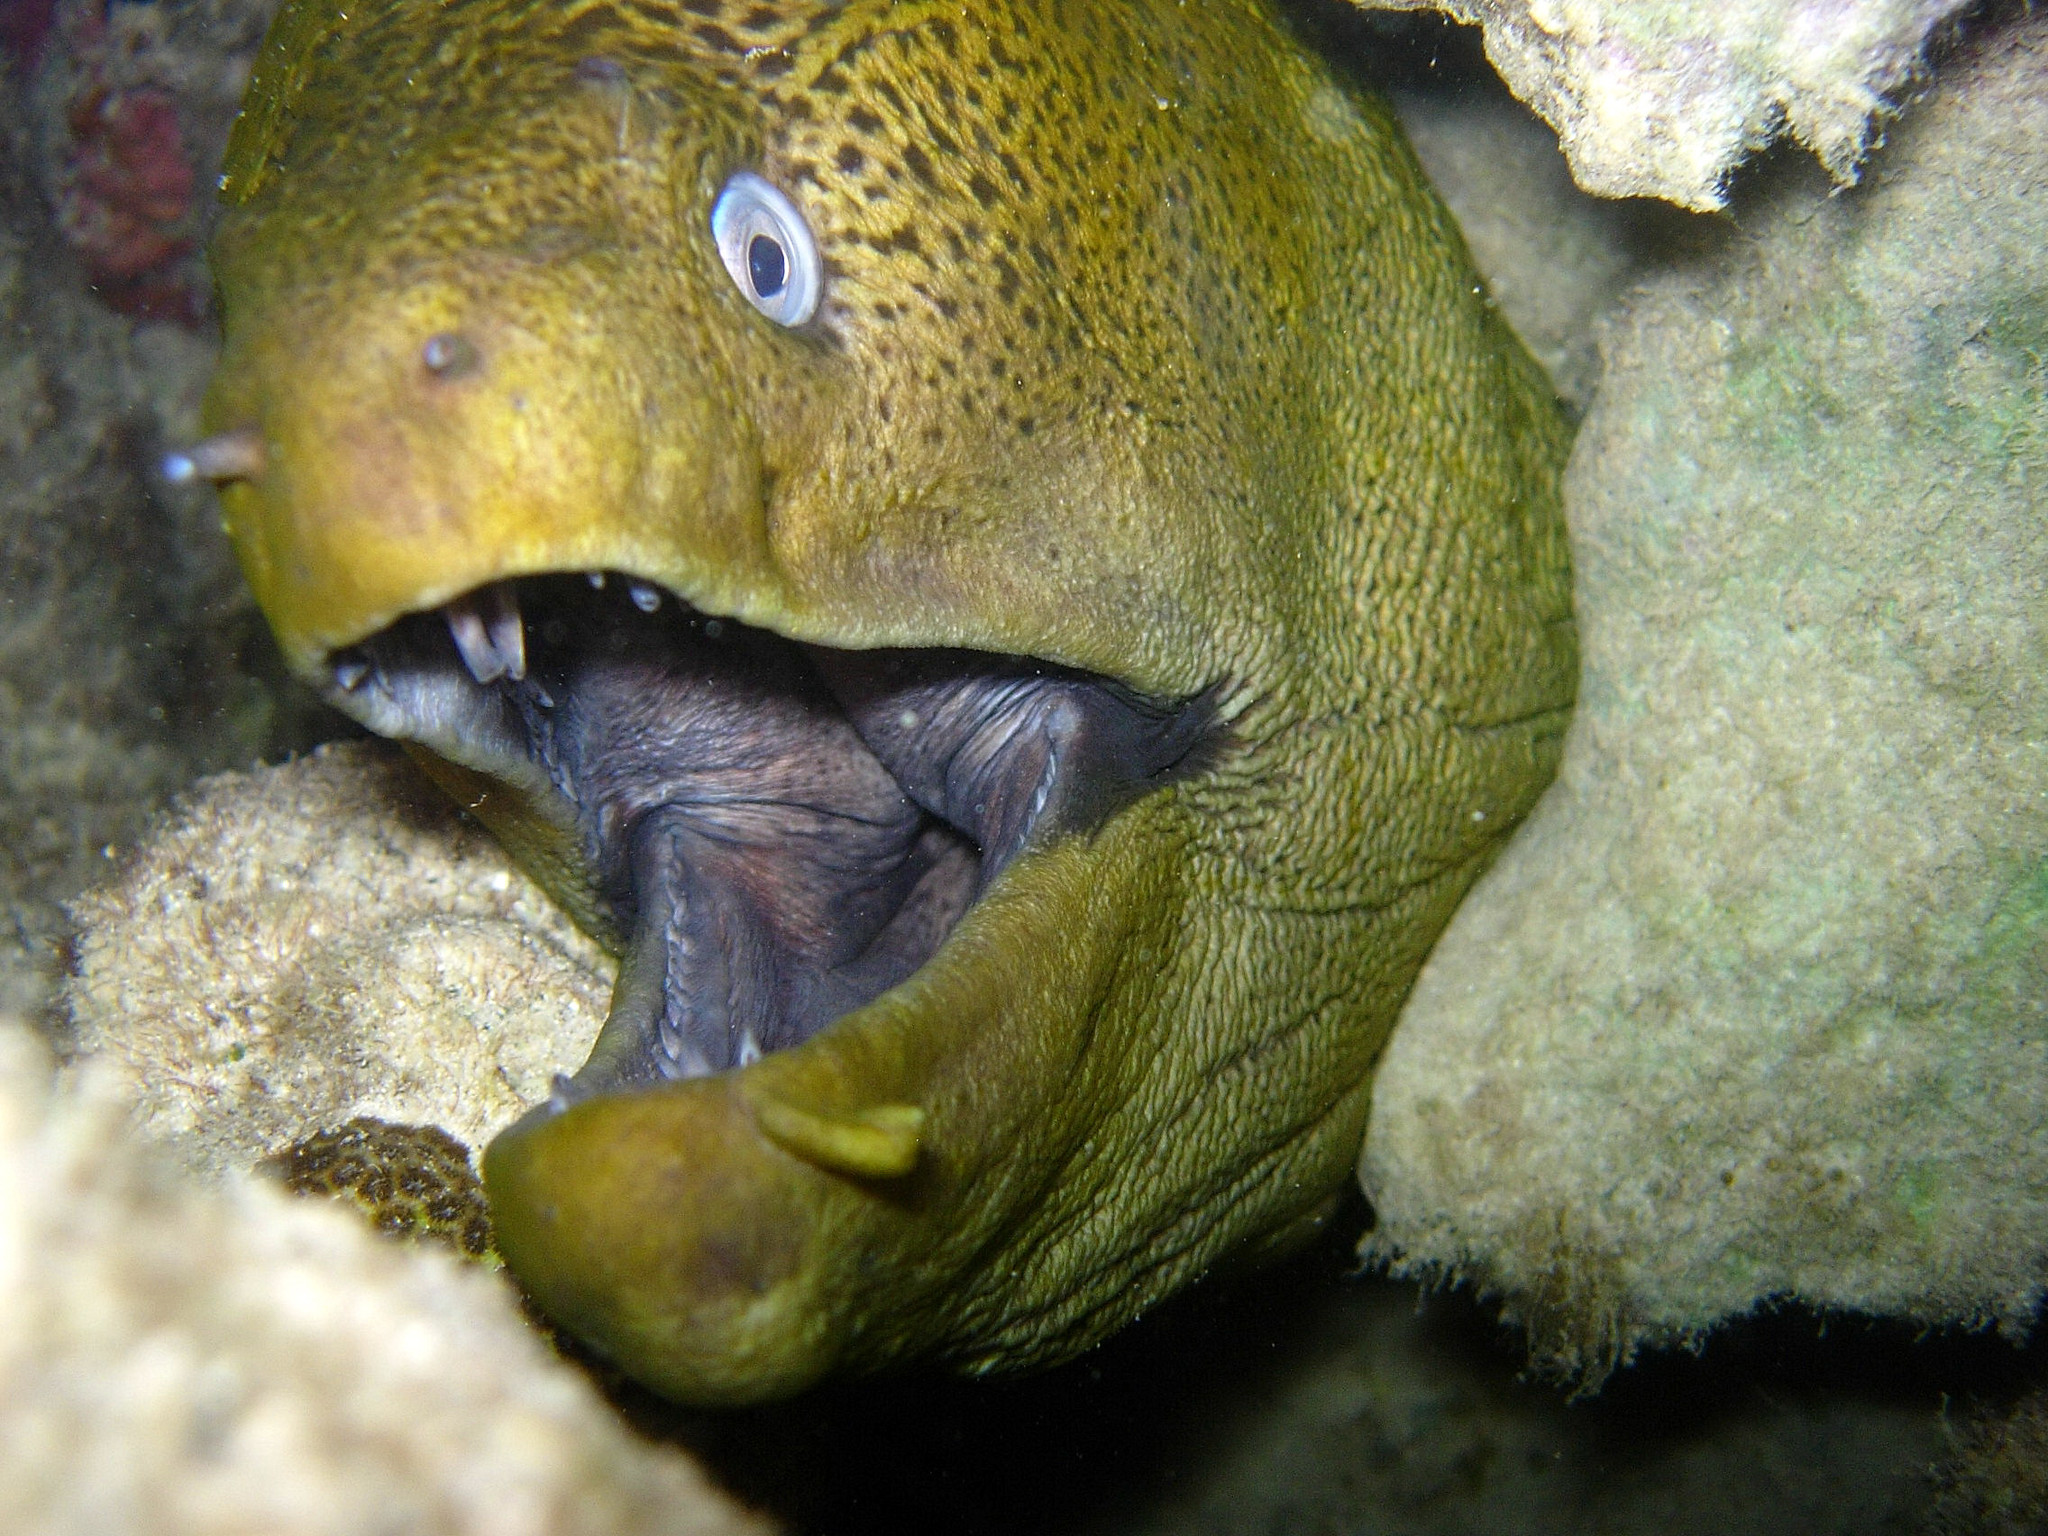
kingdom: Animalia
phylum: Chordata
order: Anguilliformes
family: Muraenidae
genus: Gymnothorax
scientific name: Gymnothorax javanicus
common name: Giant moray
